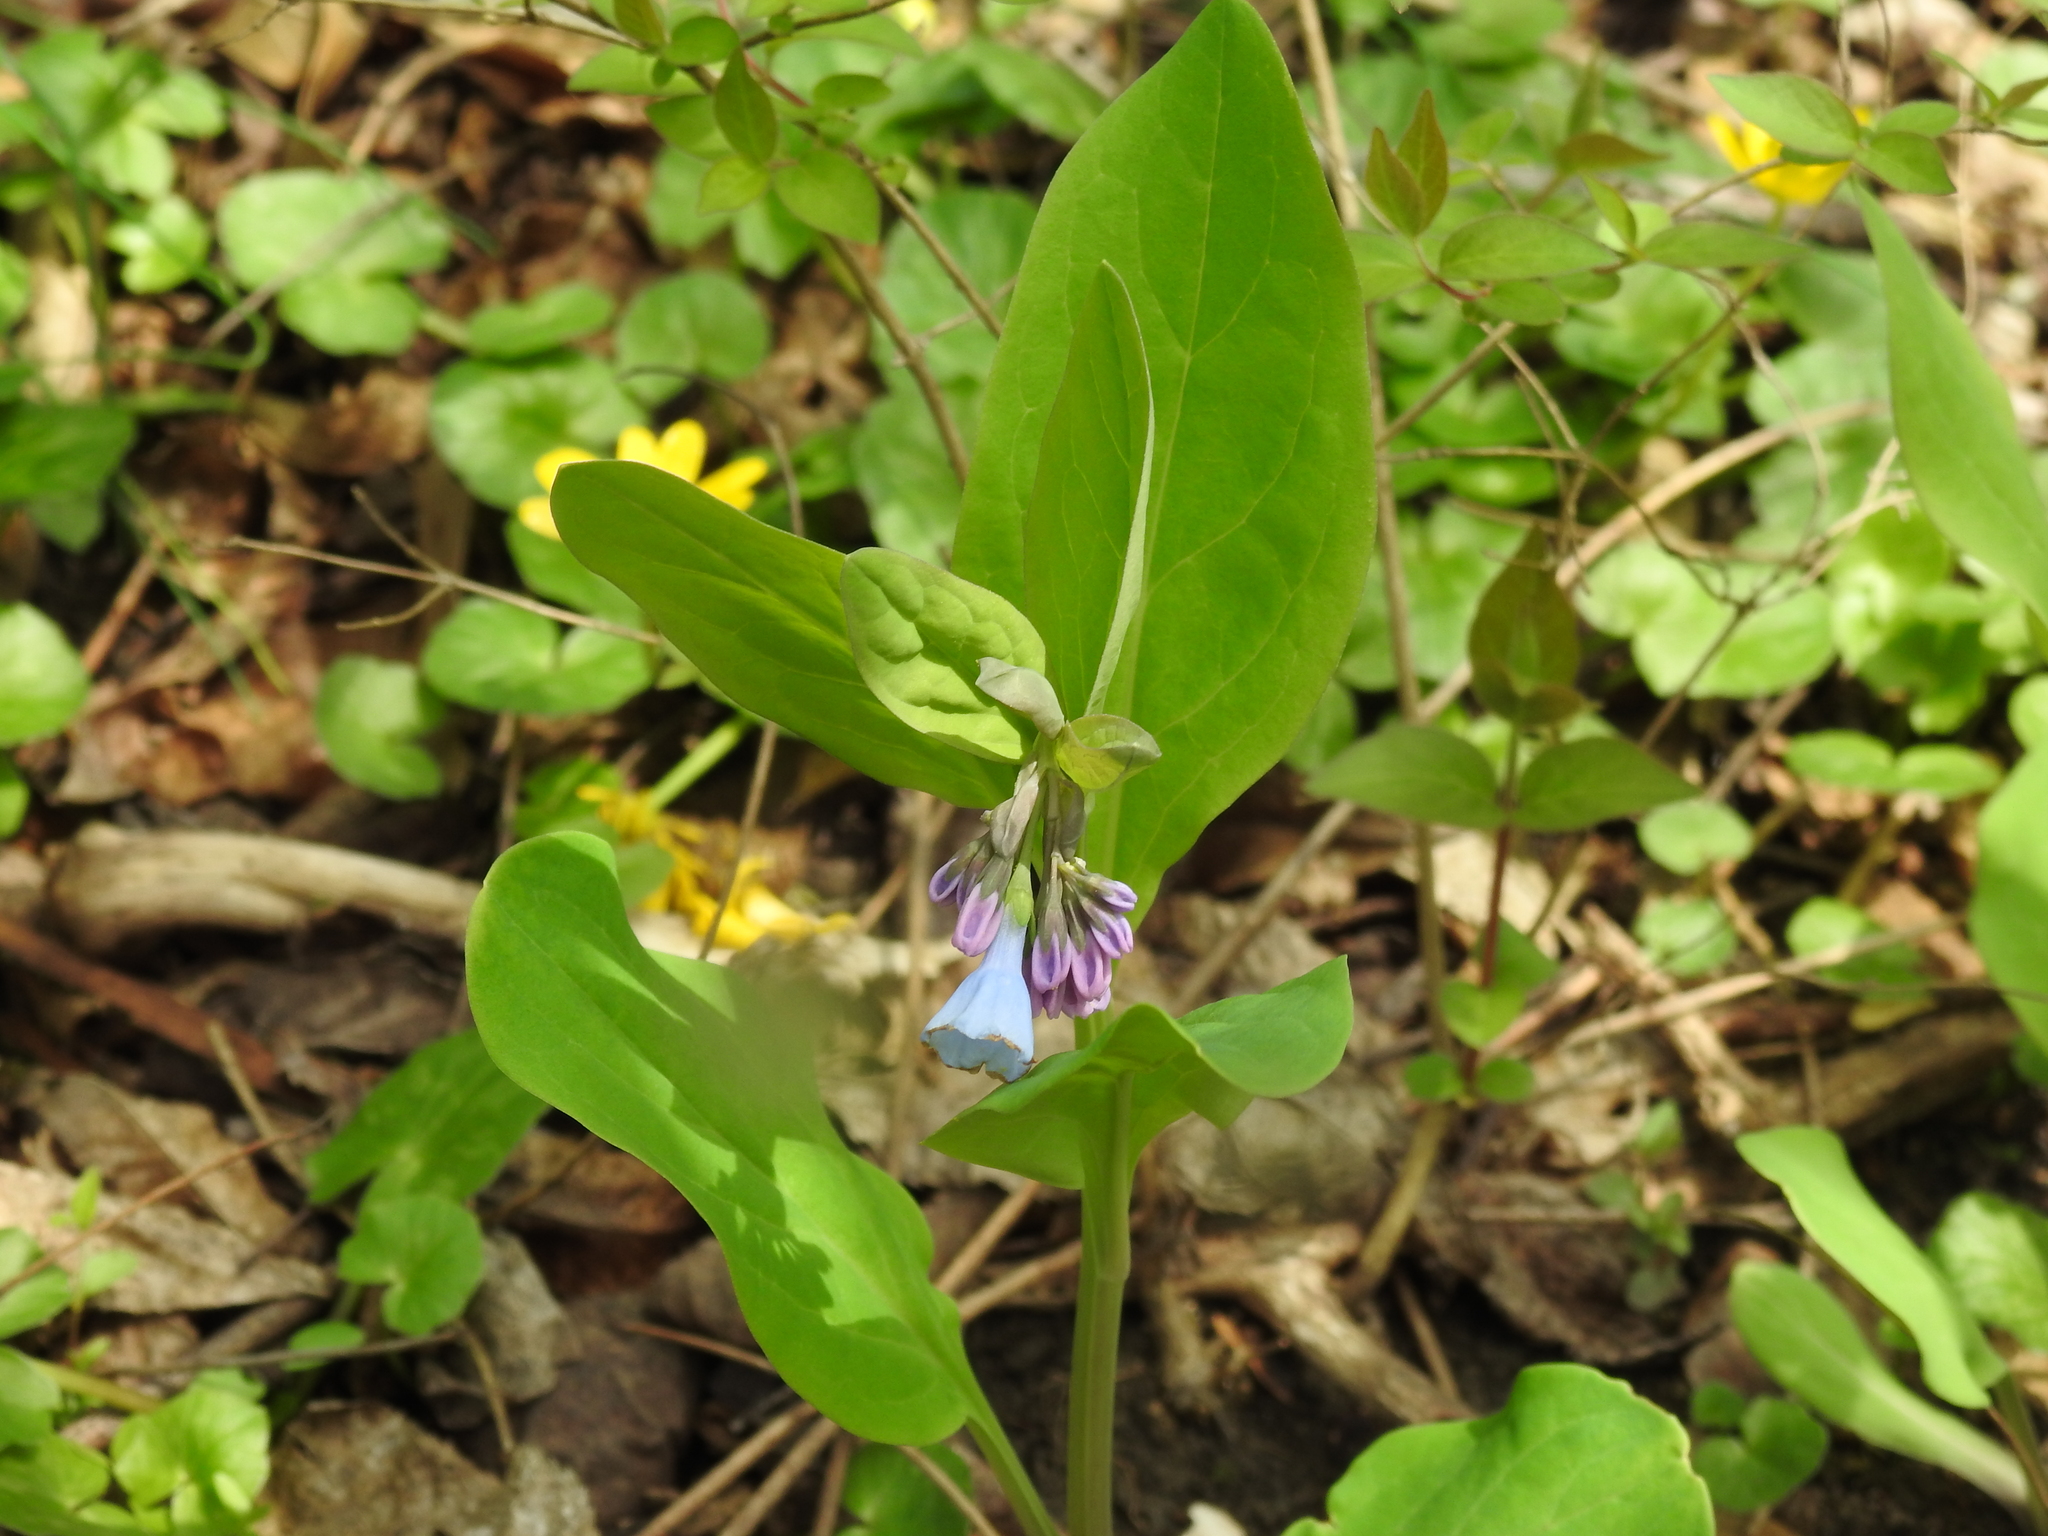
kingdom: Plantae
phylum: Tracheophyta
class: Magnoliopsida
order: Boraginales
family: Boraginaceae
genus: Mertensia
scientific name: Mertensia virginica
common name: Virginia bluebells
